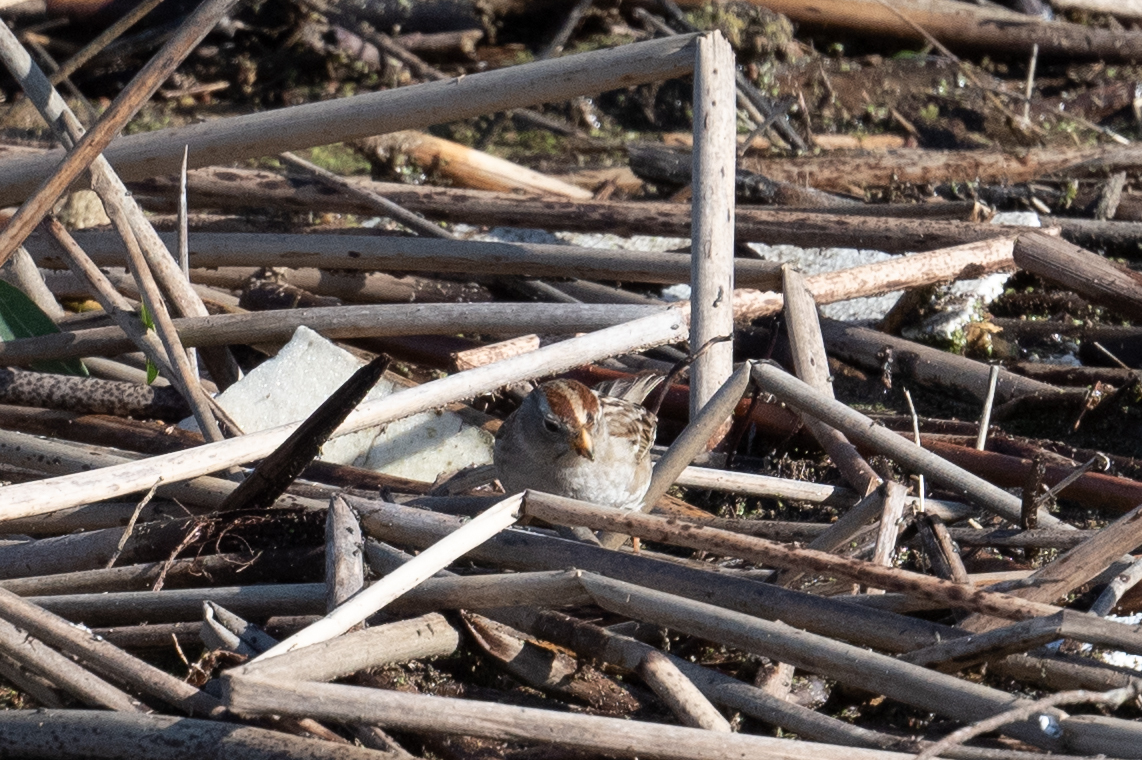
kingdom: Animalia
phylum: Chordata
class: Aves
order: Passeriformes
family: Passerellidae
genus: Zonotrichia
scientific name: Zonotrichia leucophrys
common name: White-crowned sparrow
